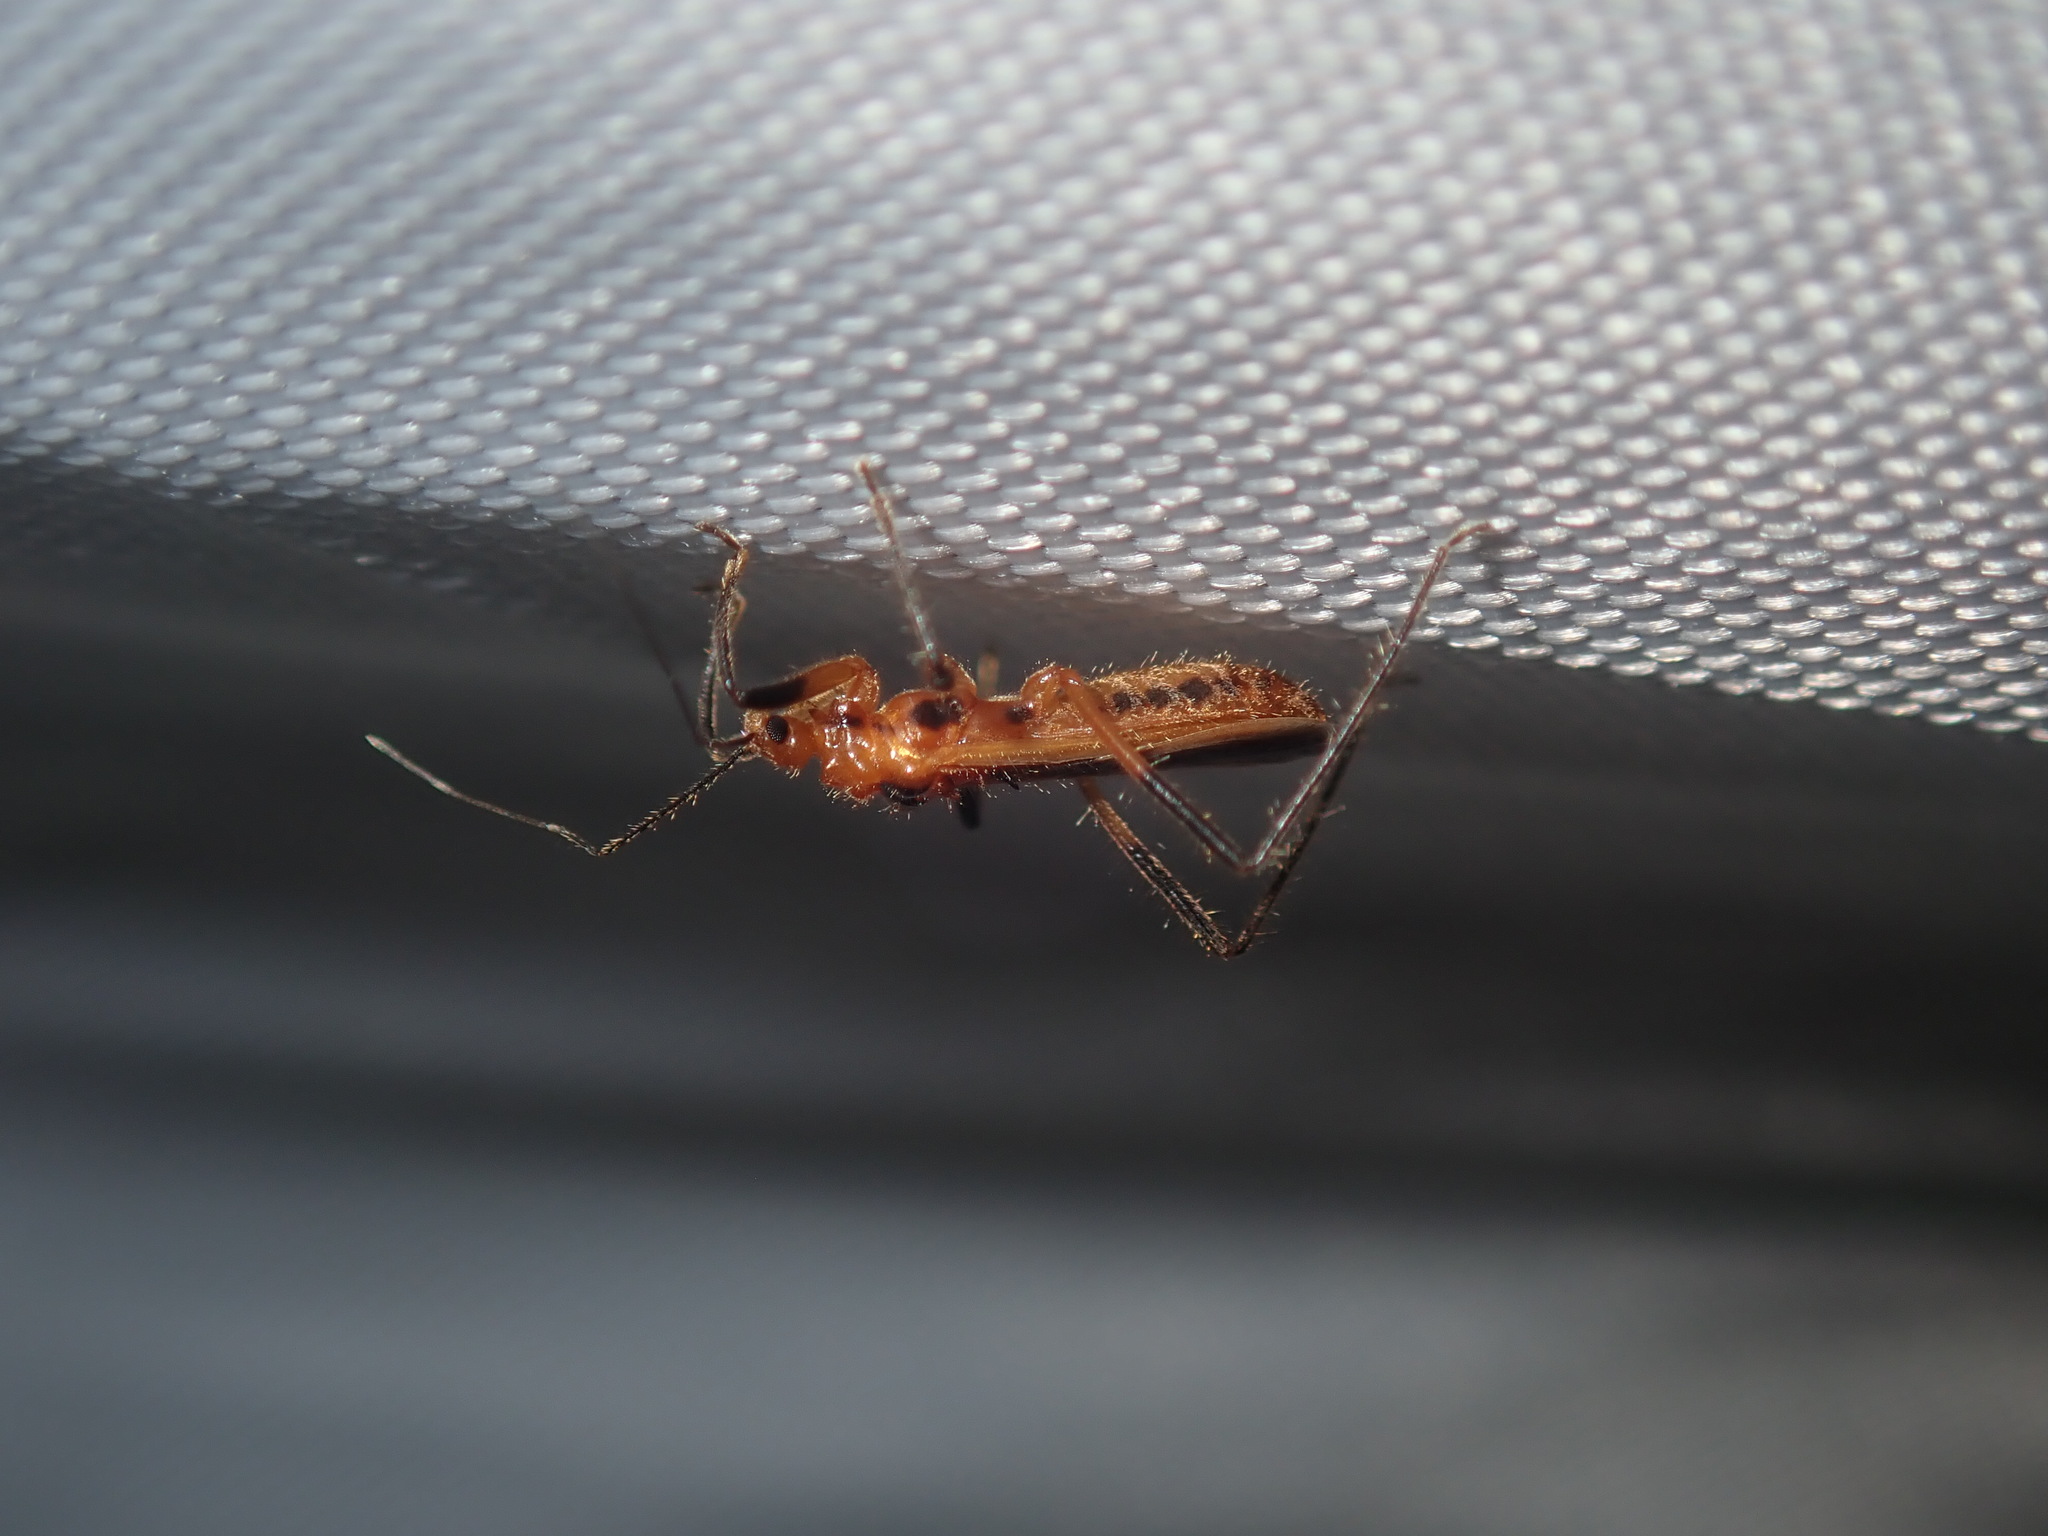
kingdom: Animalia
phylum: Arthropoda
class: Insecta
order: Hemiptera
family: Reduviidae
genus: Micropolytoxus
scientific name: Micropolytoxus hackeri
